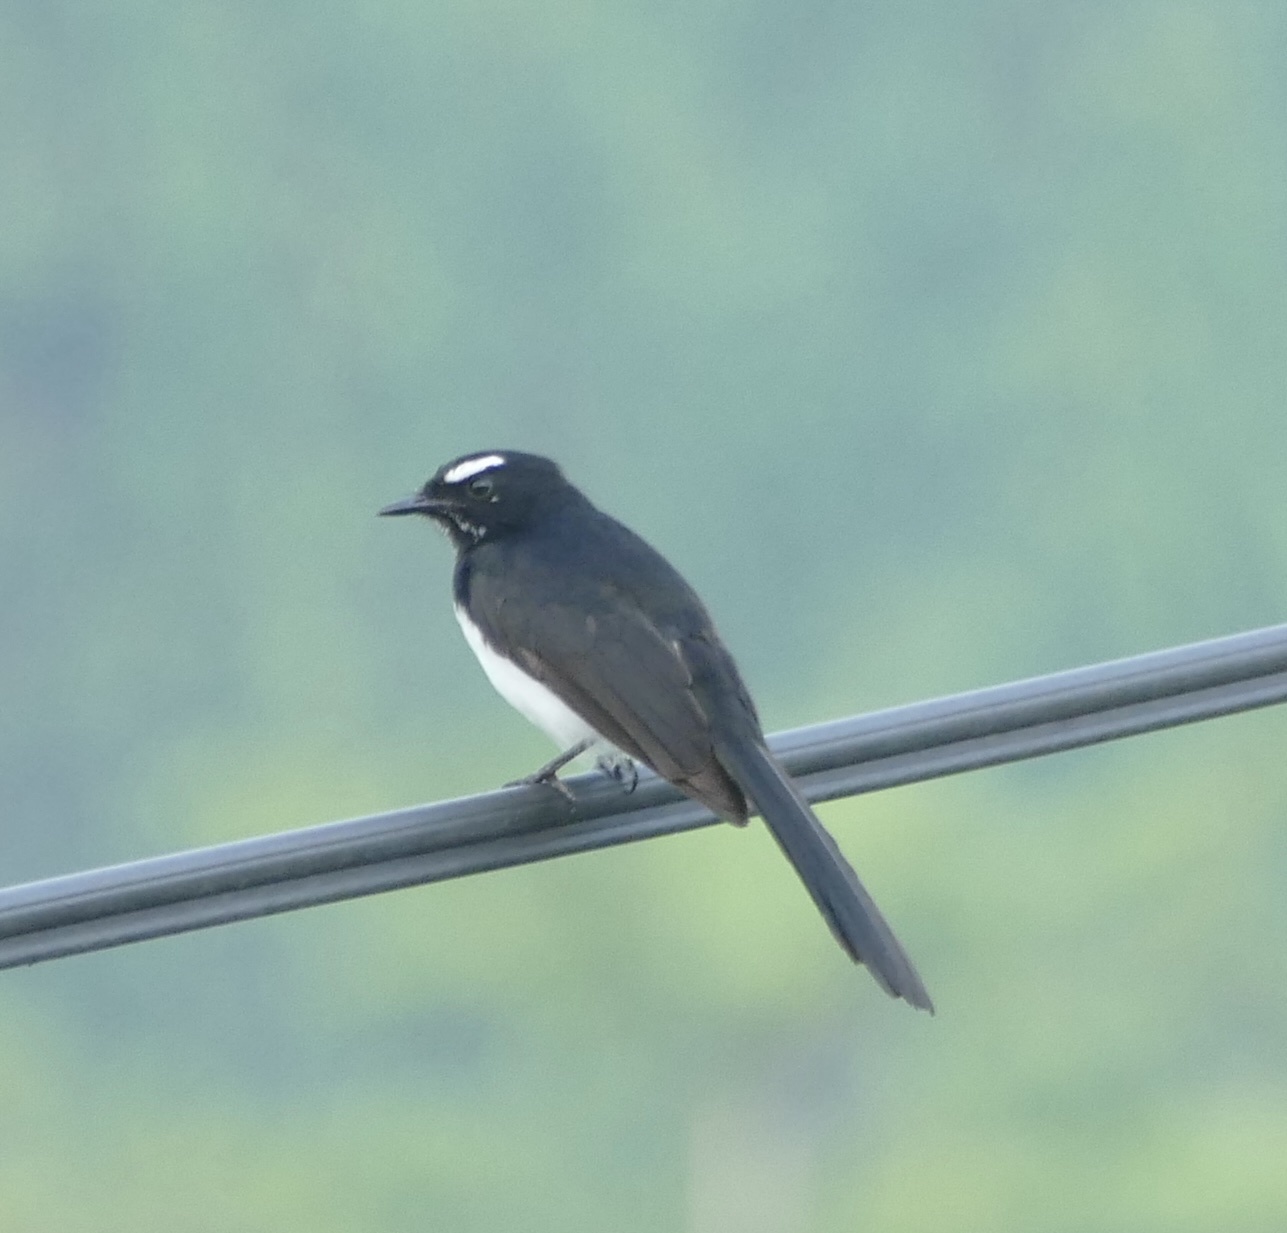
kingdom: Animalia
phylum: Chordata
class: Aves
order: Passeriformes
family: Rhipiduridae
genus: Rhipidura
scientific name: Rhipidura leucophrys
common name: Willie wagtail
